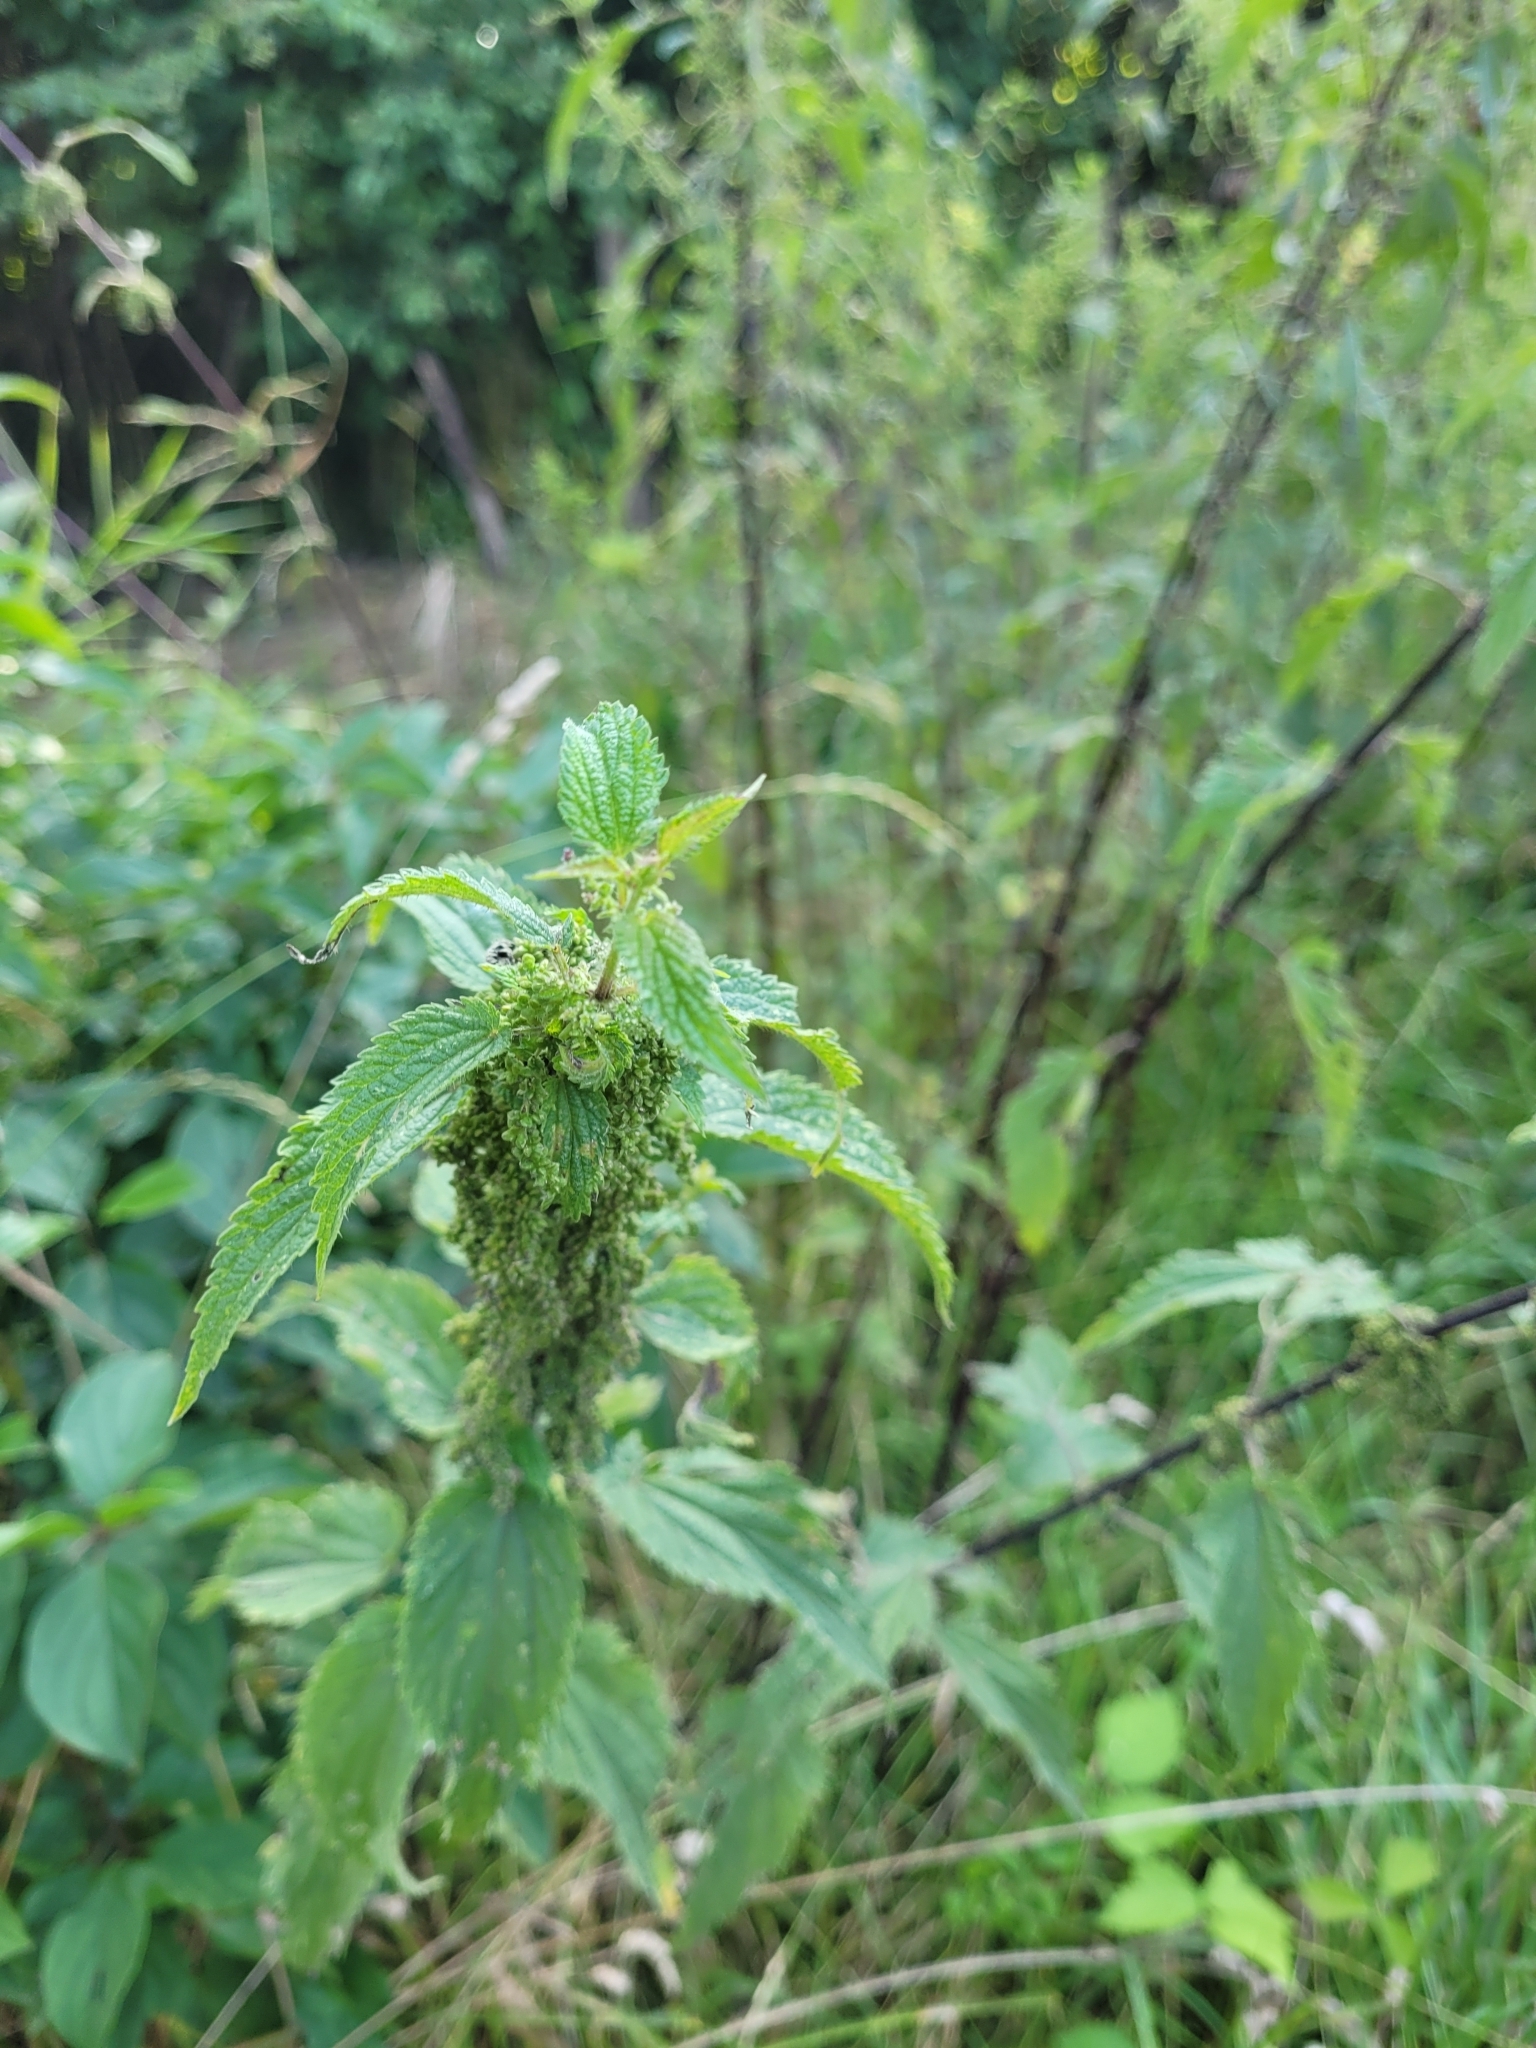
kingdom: Plantae
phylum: Tracheophyta
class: Magnoliopsida
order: Rosales
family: Urticaceae
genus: Urtica
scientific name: Urtica dioica
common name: Common nettle
